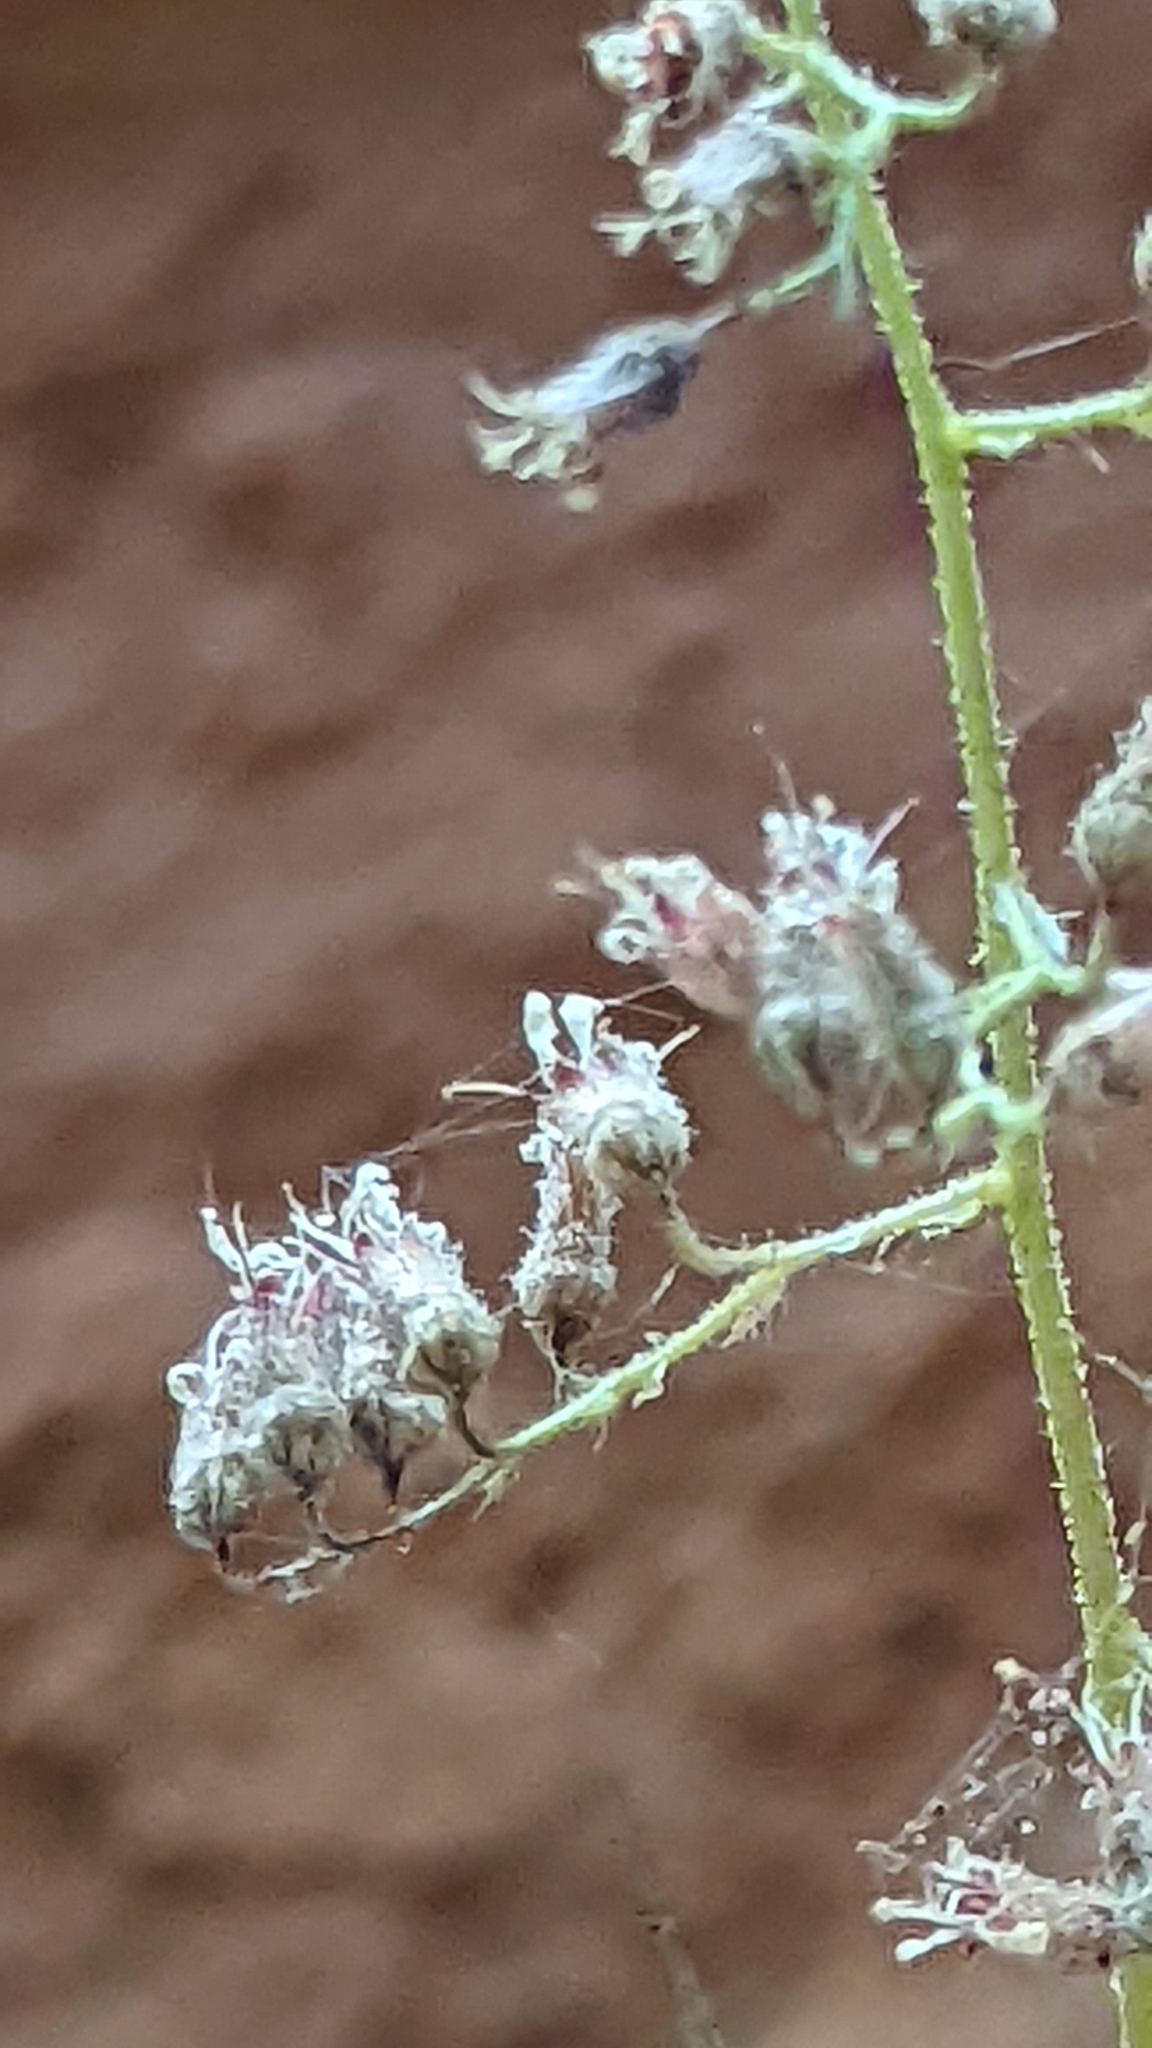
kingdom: Plantae
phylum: Tracheophyta
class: Magnoliopsida
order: Saxifragales
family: Saxifragaceae
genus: Heuchera
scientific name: Heuchera rubescens
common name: Jack-o'the-rocks
